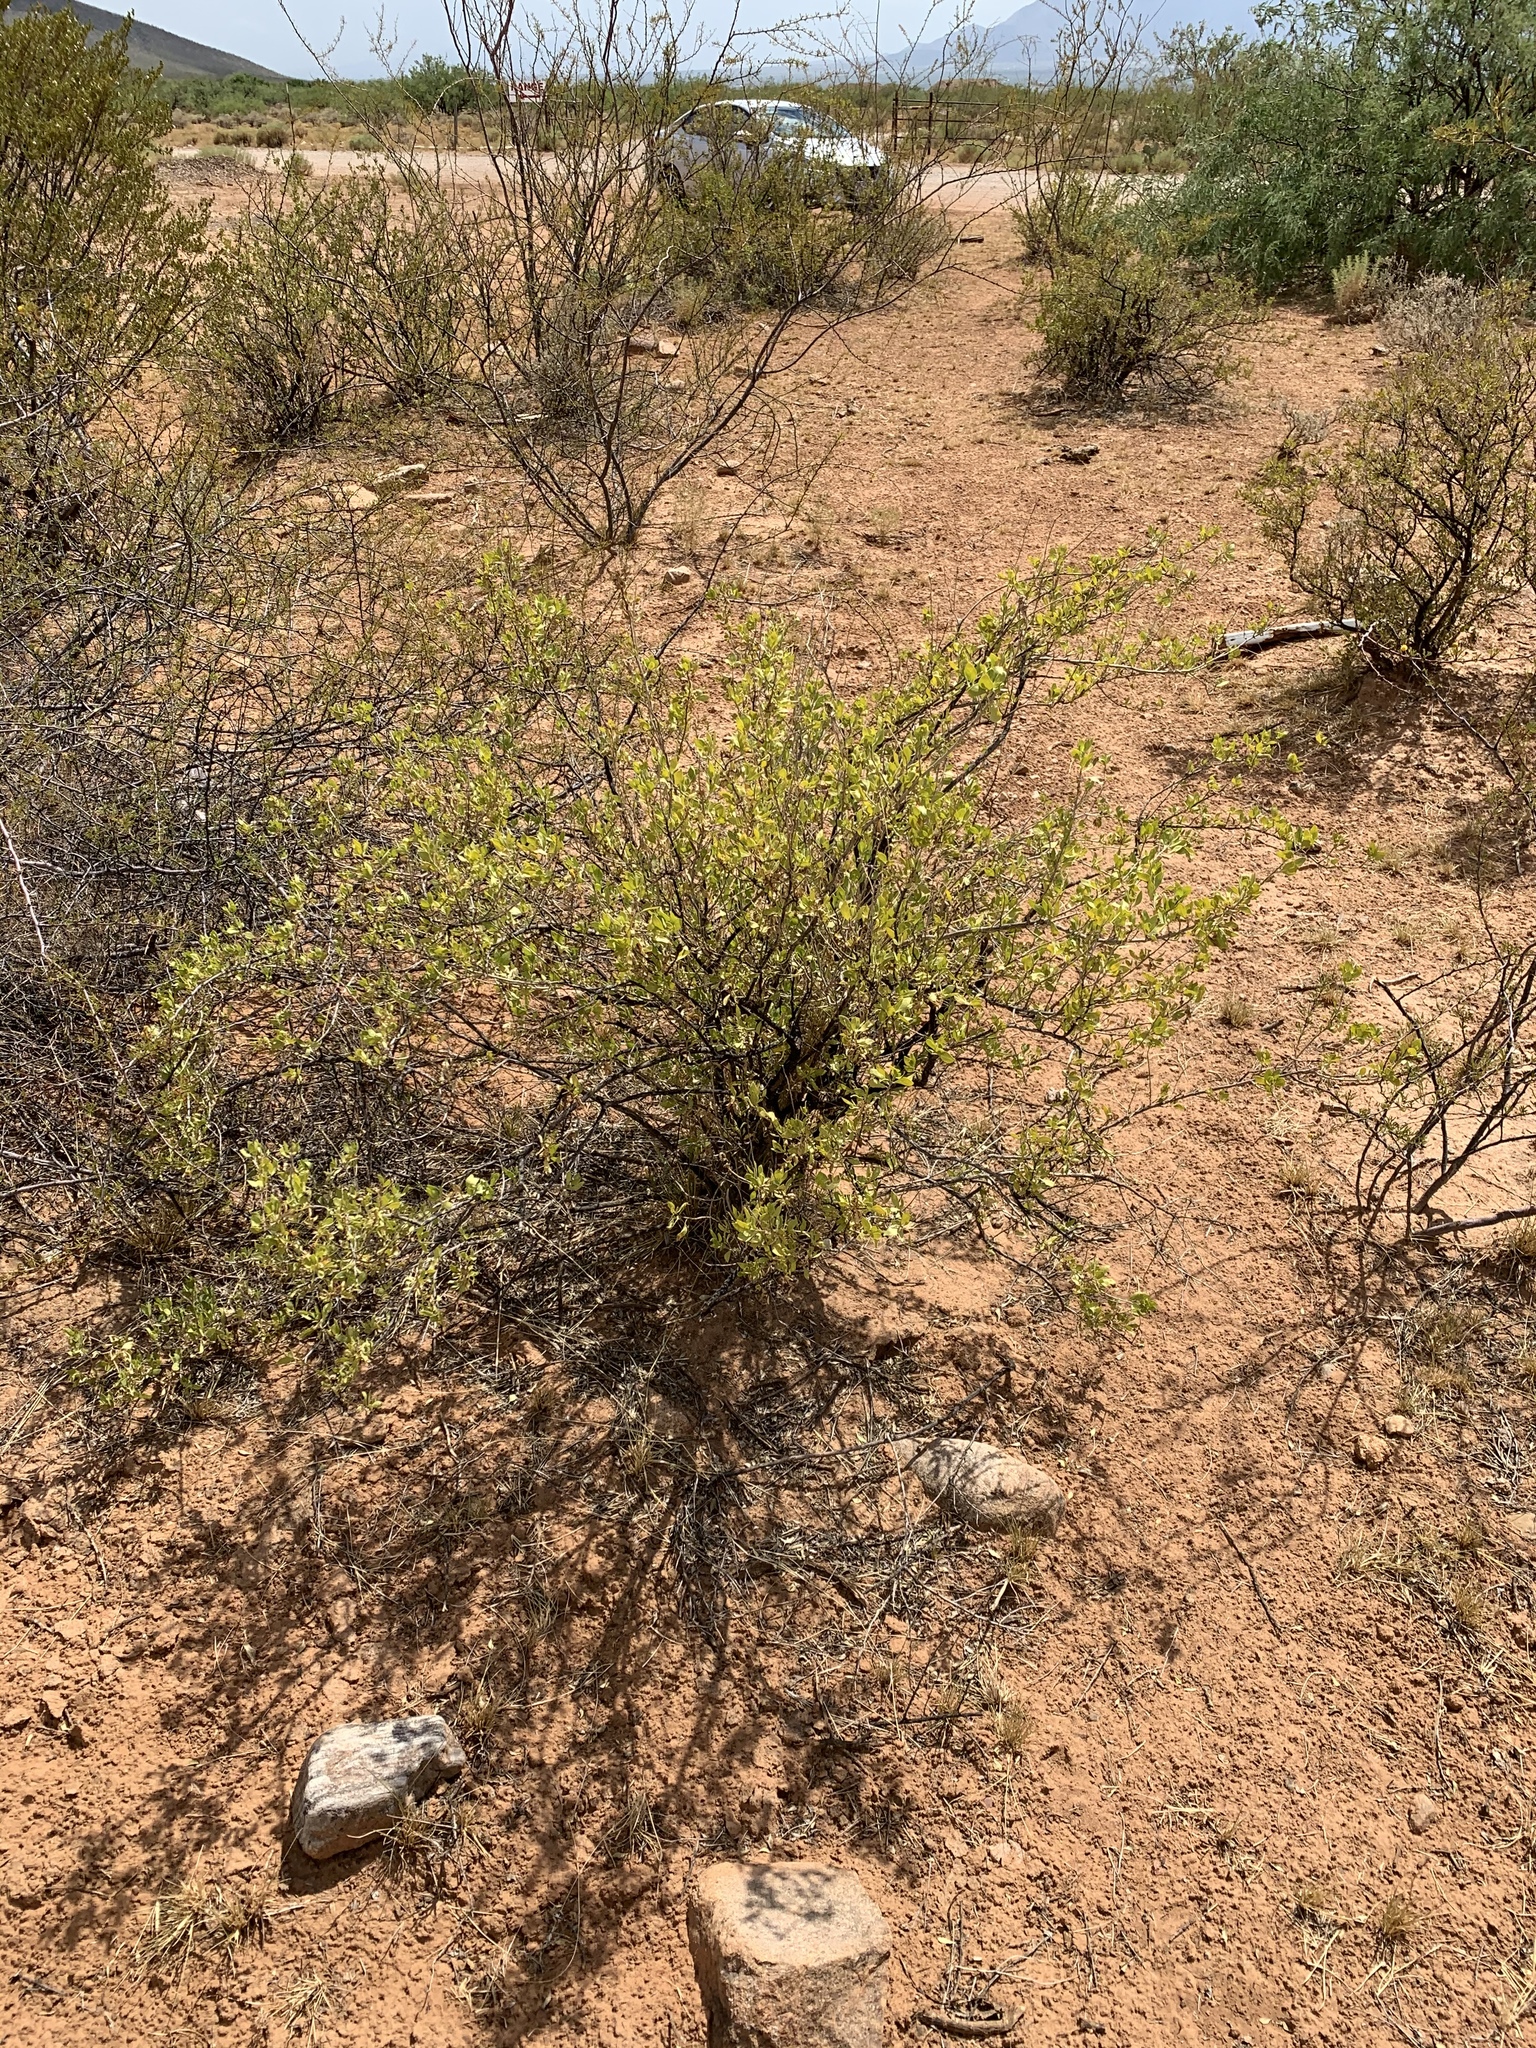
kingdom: Plantae
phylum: Tracheophyta
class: Magnoliopsida
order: Asterales
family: Asteraceae
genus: Flourensia
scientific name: Flourensia cernua
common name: Varnishbush
